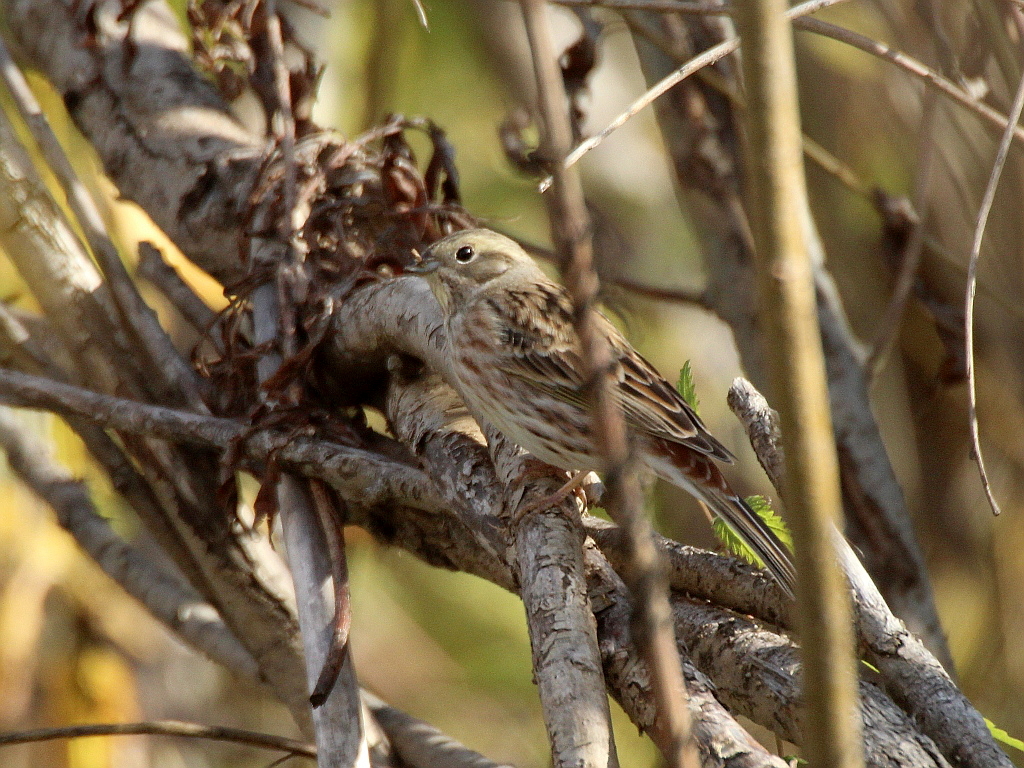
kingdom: Animalia
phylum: Chordata
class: Aves
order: Passeriformes
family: Emberizidae
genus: Emberiza
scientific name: Emberiza
